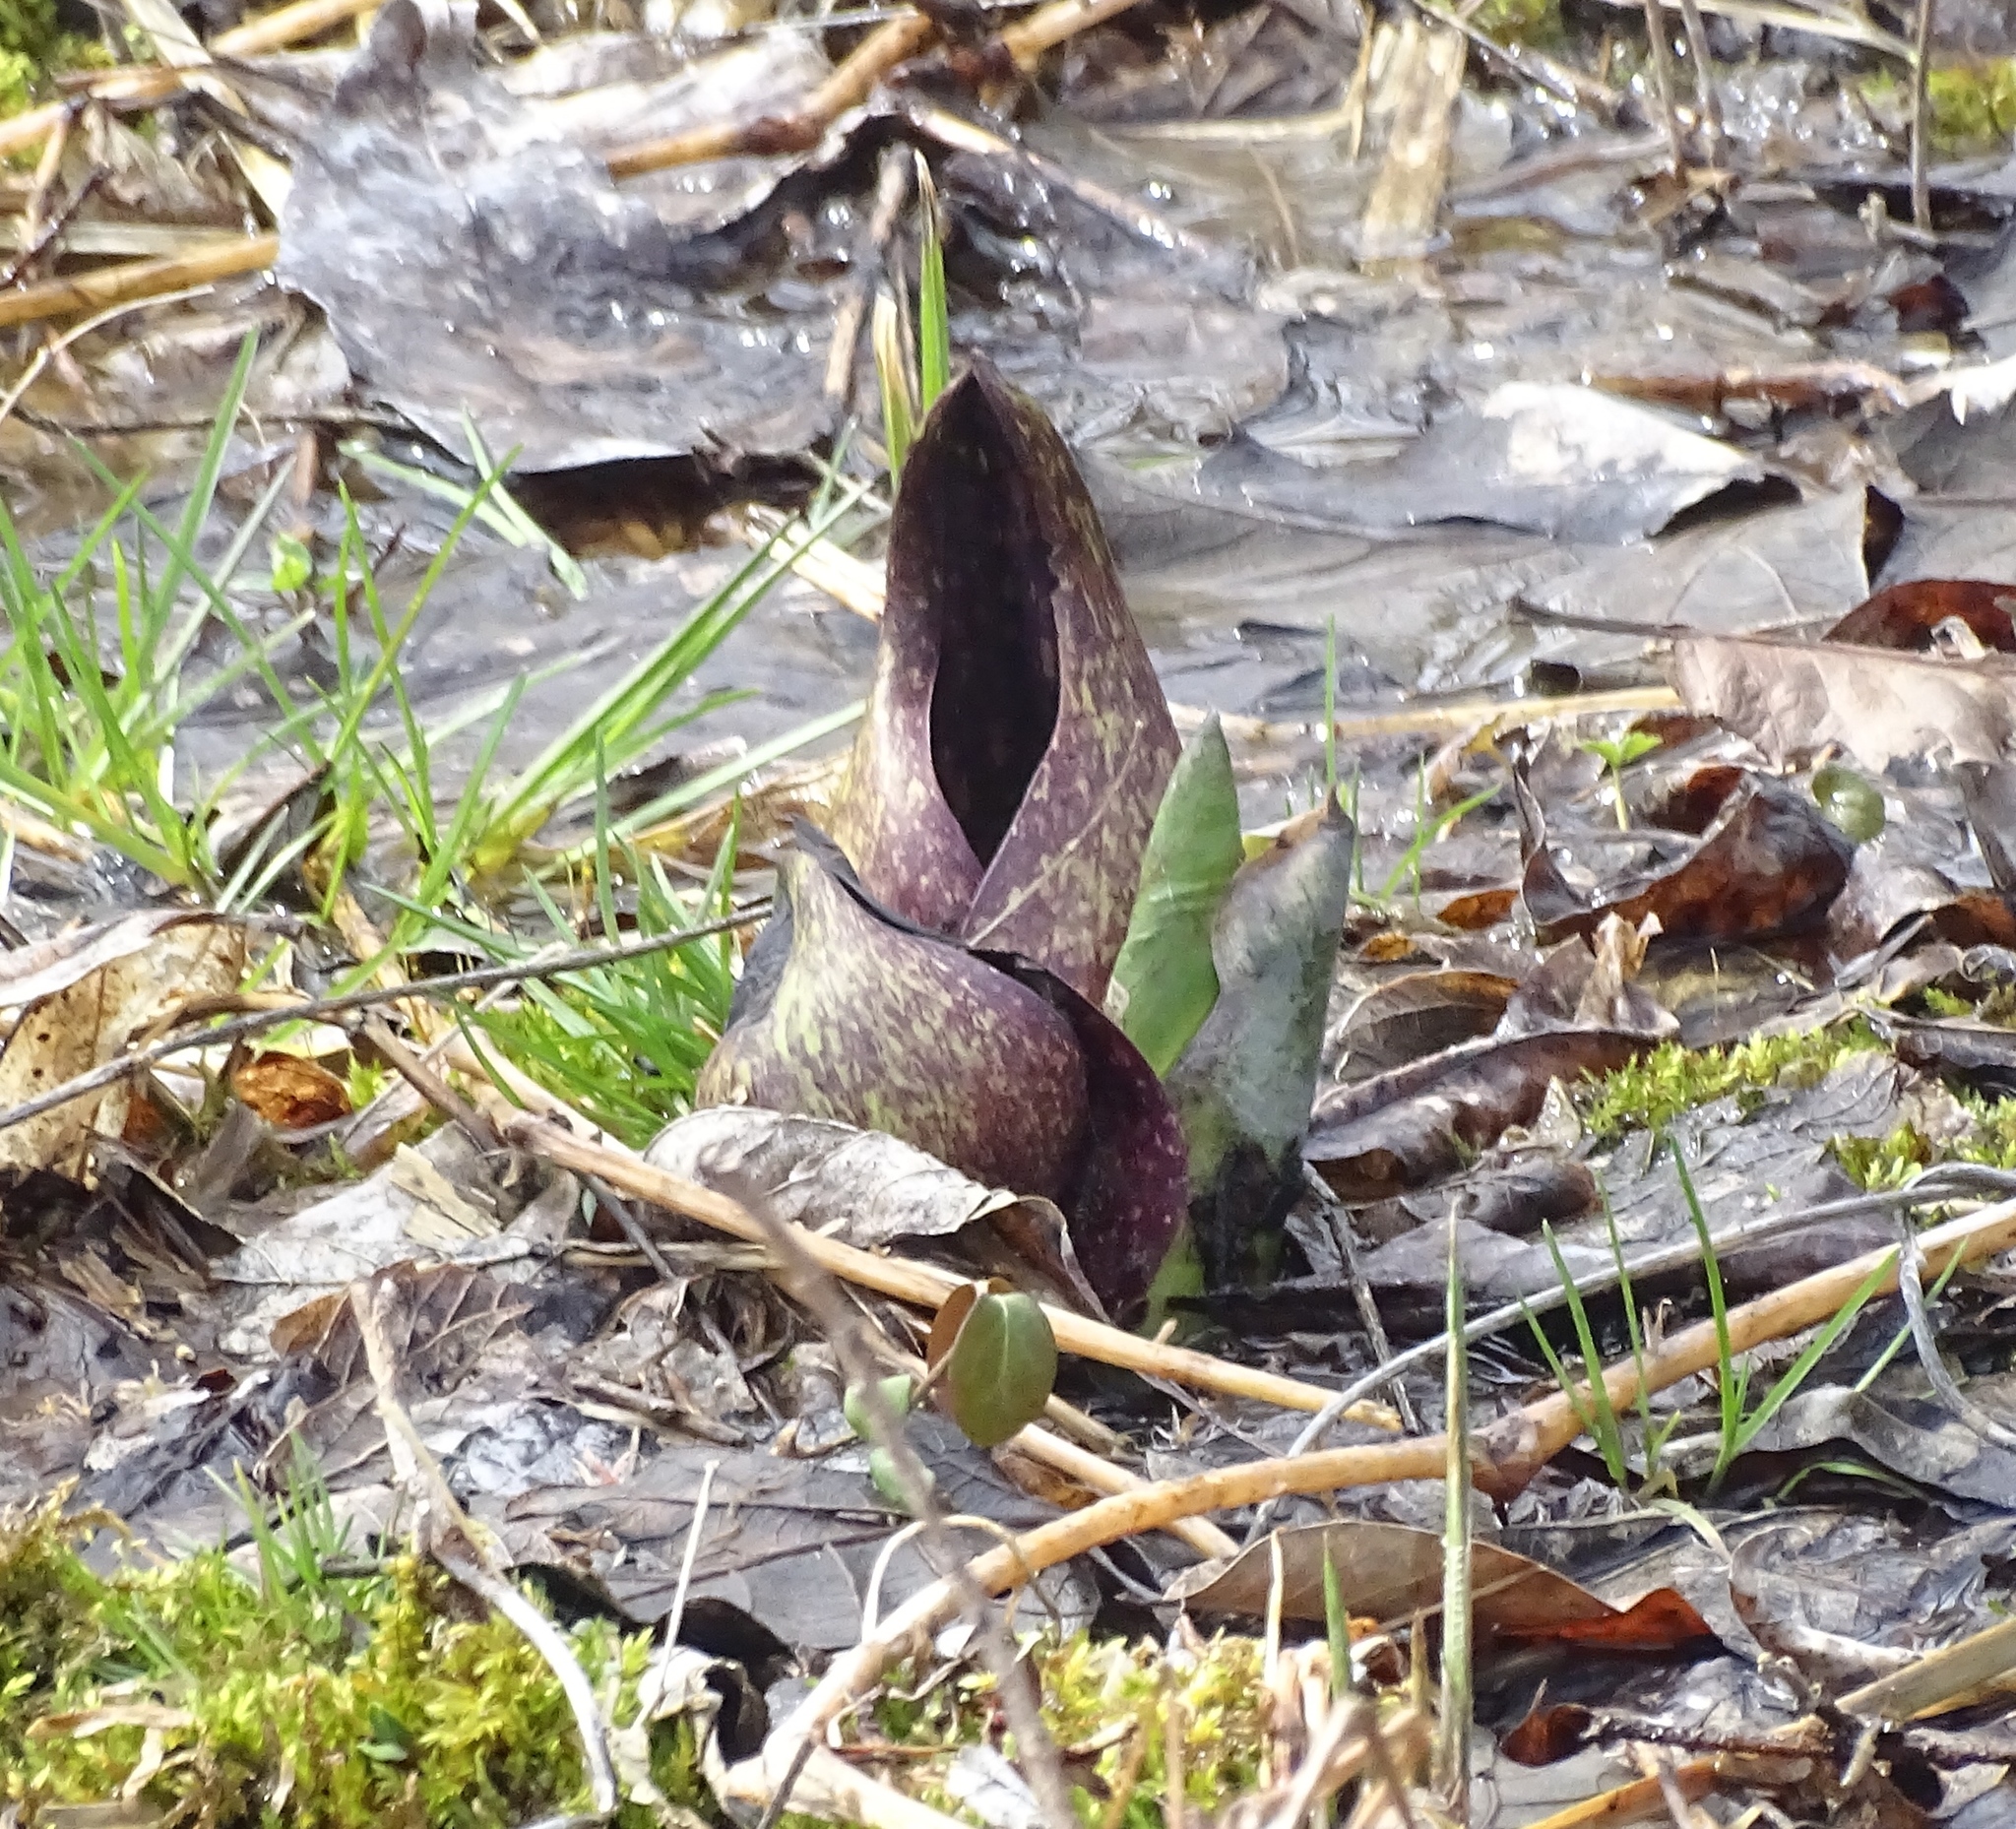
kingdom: Plantae
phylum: Tracheophyta
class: Liliopsida
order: Alismatales
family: Araceae
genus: Symplocarpus
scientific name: Symplocarpus foetidus
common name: Eastern skunk cabbage
